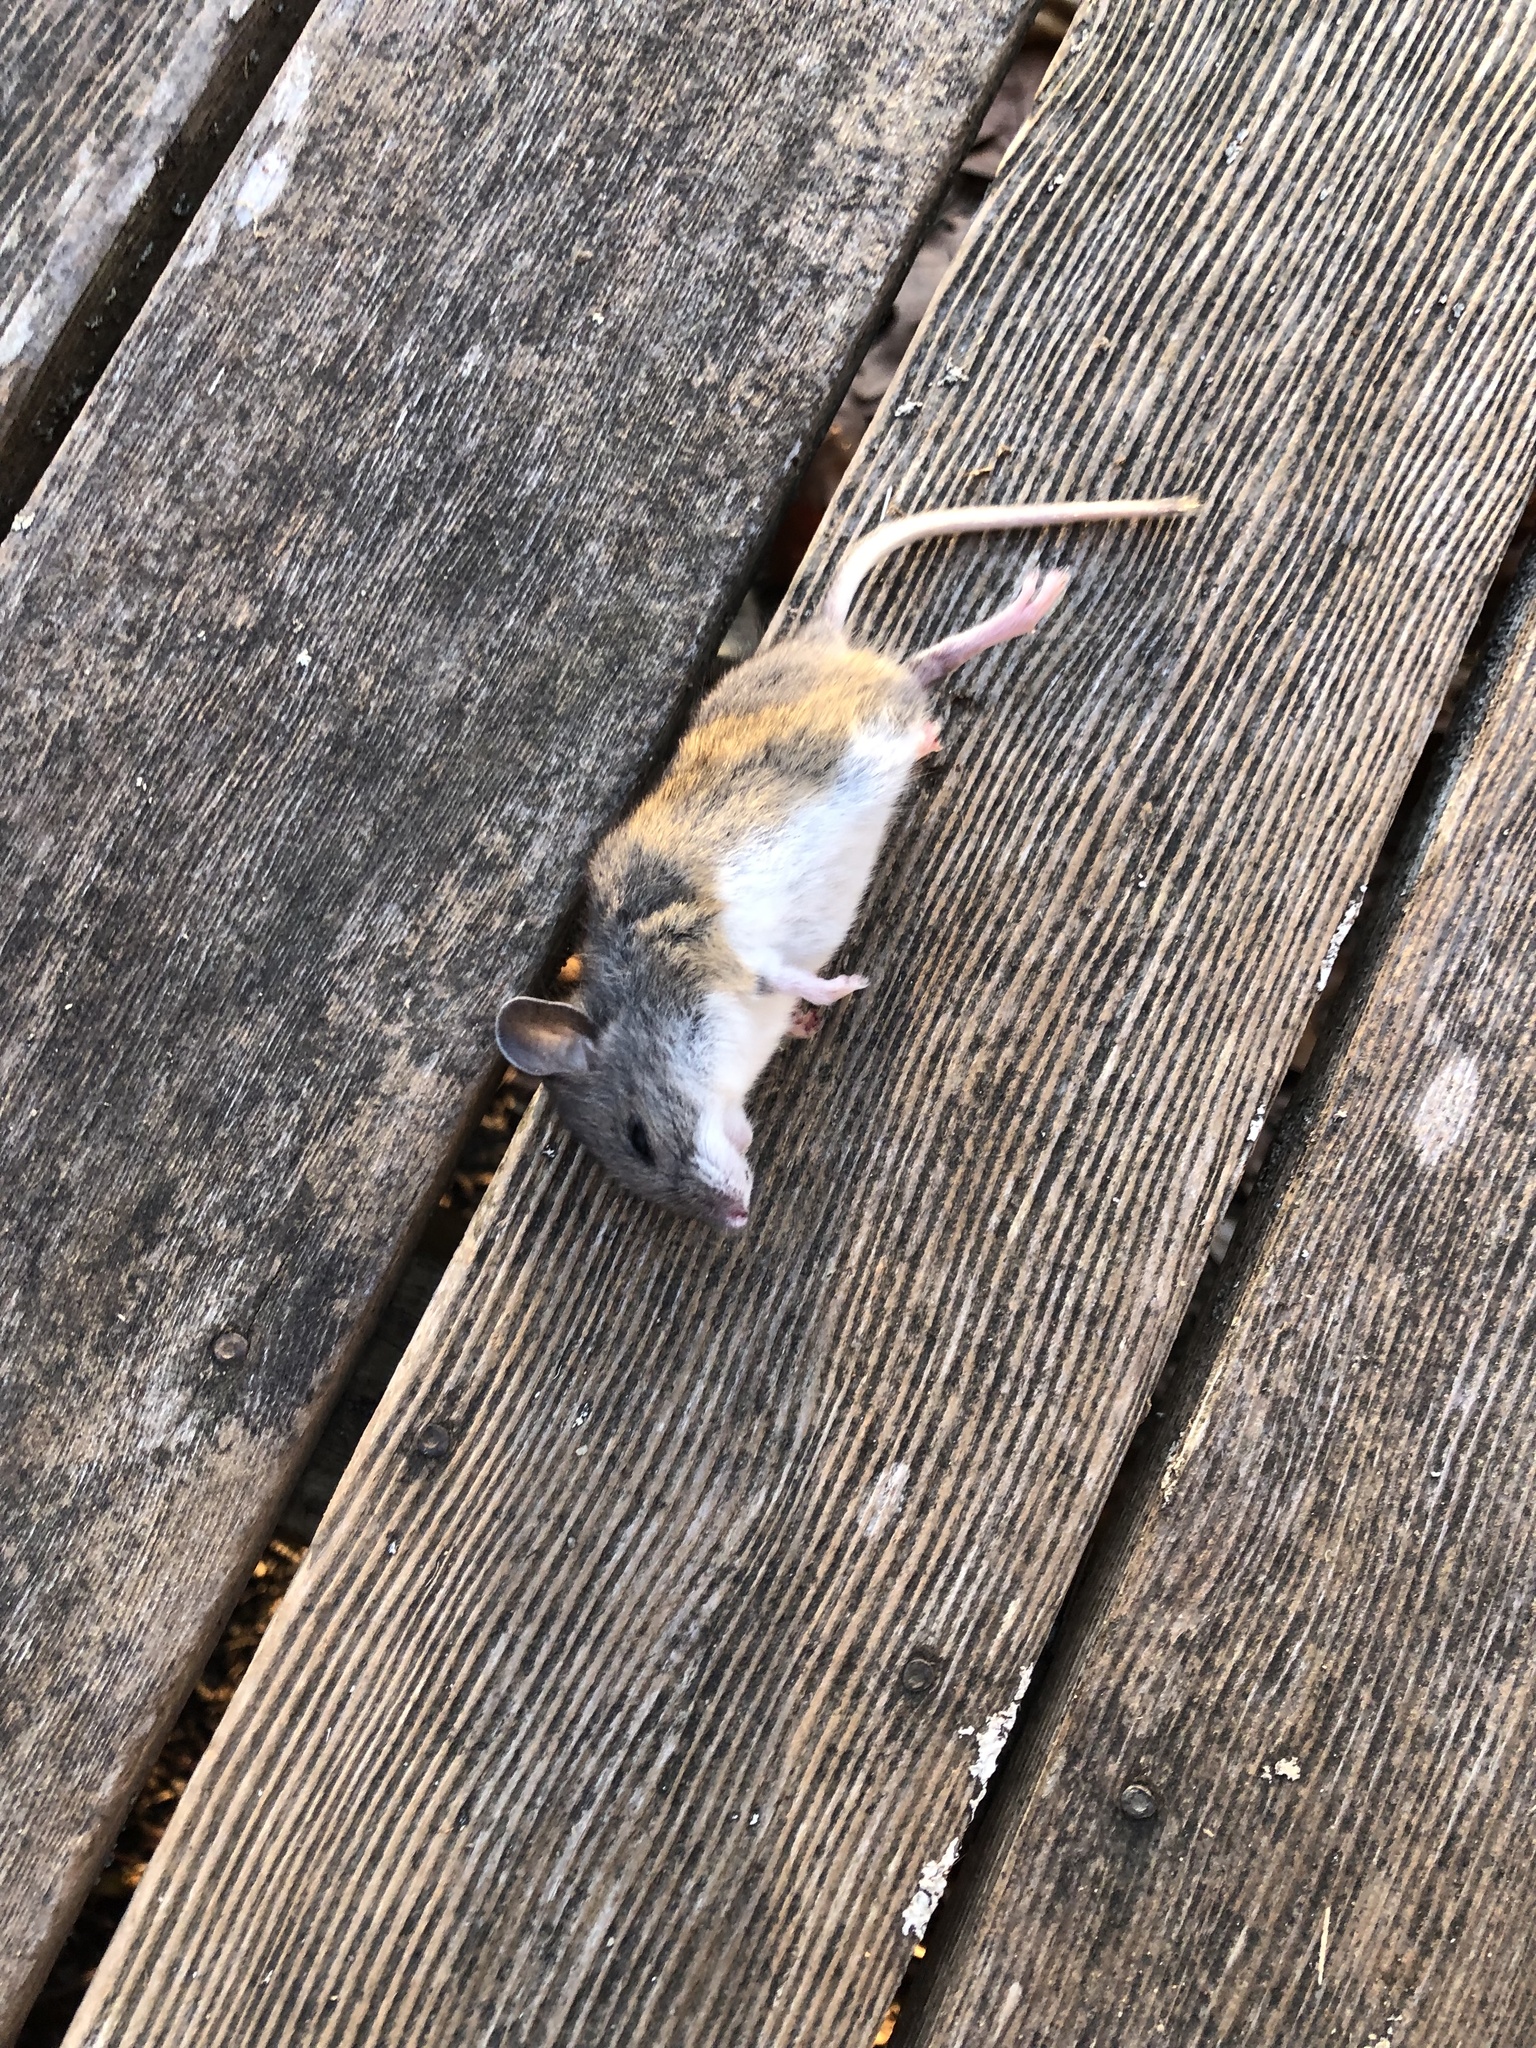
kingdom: Animalia
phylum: Chordata
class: Mammalia
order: Rodentia
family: Cricetidae
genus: Peromyscus
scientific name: Peromyscus leucopus
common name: White-footed deermouse
